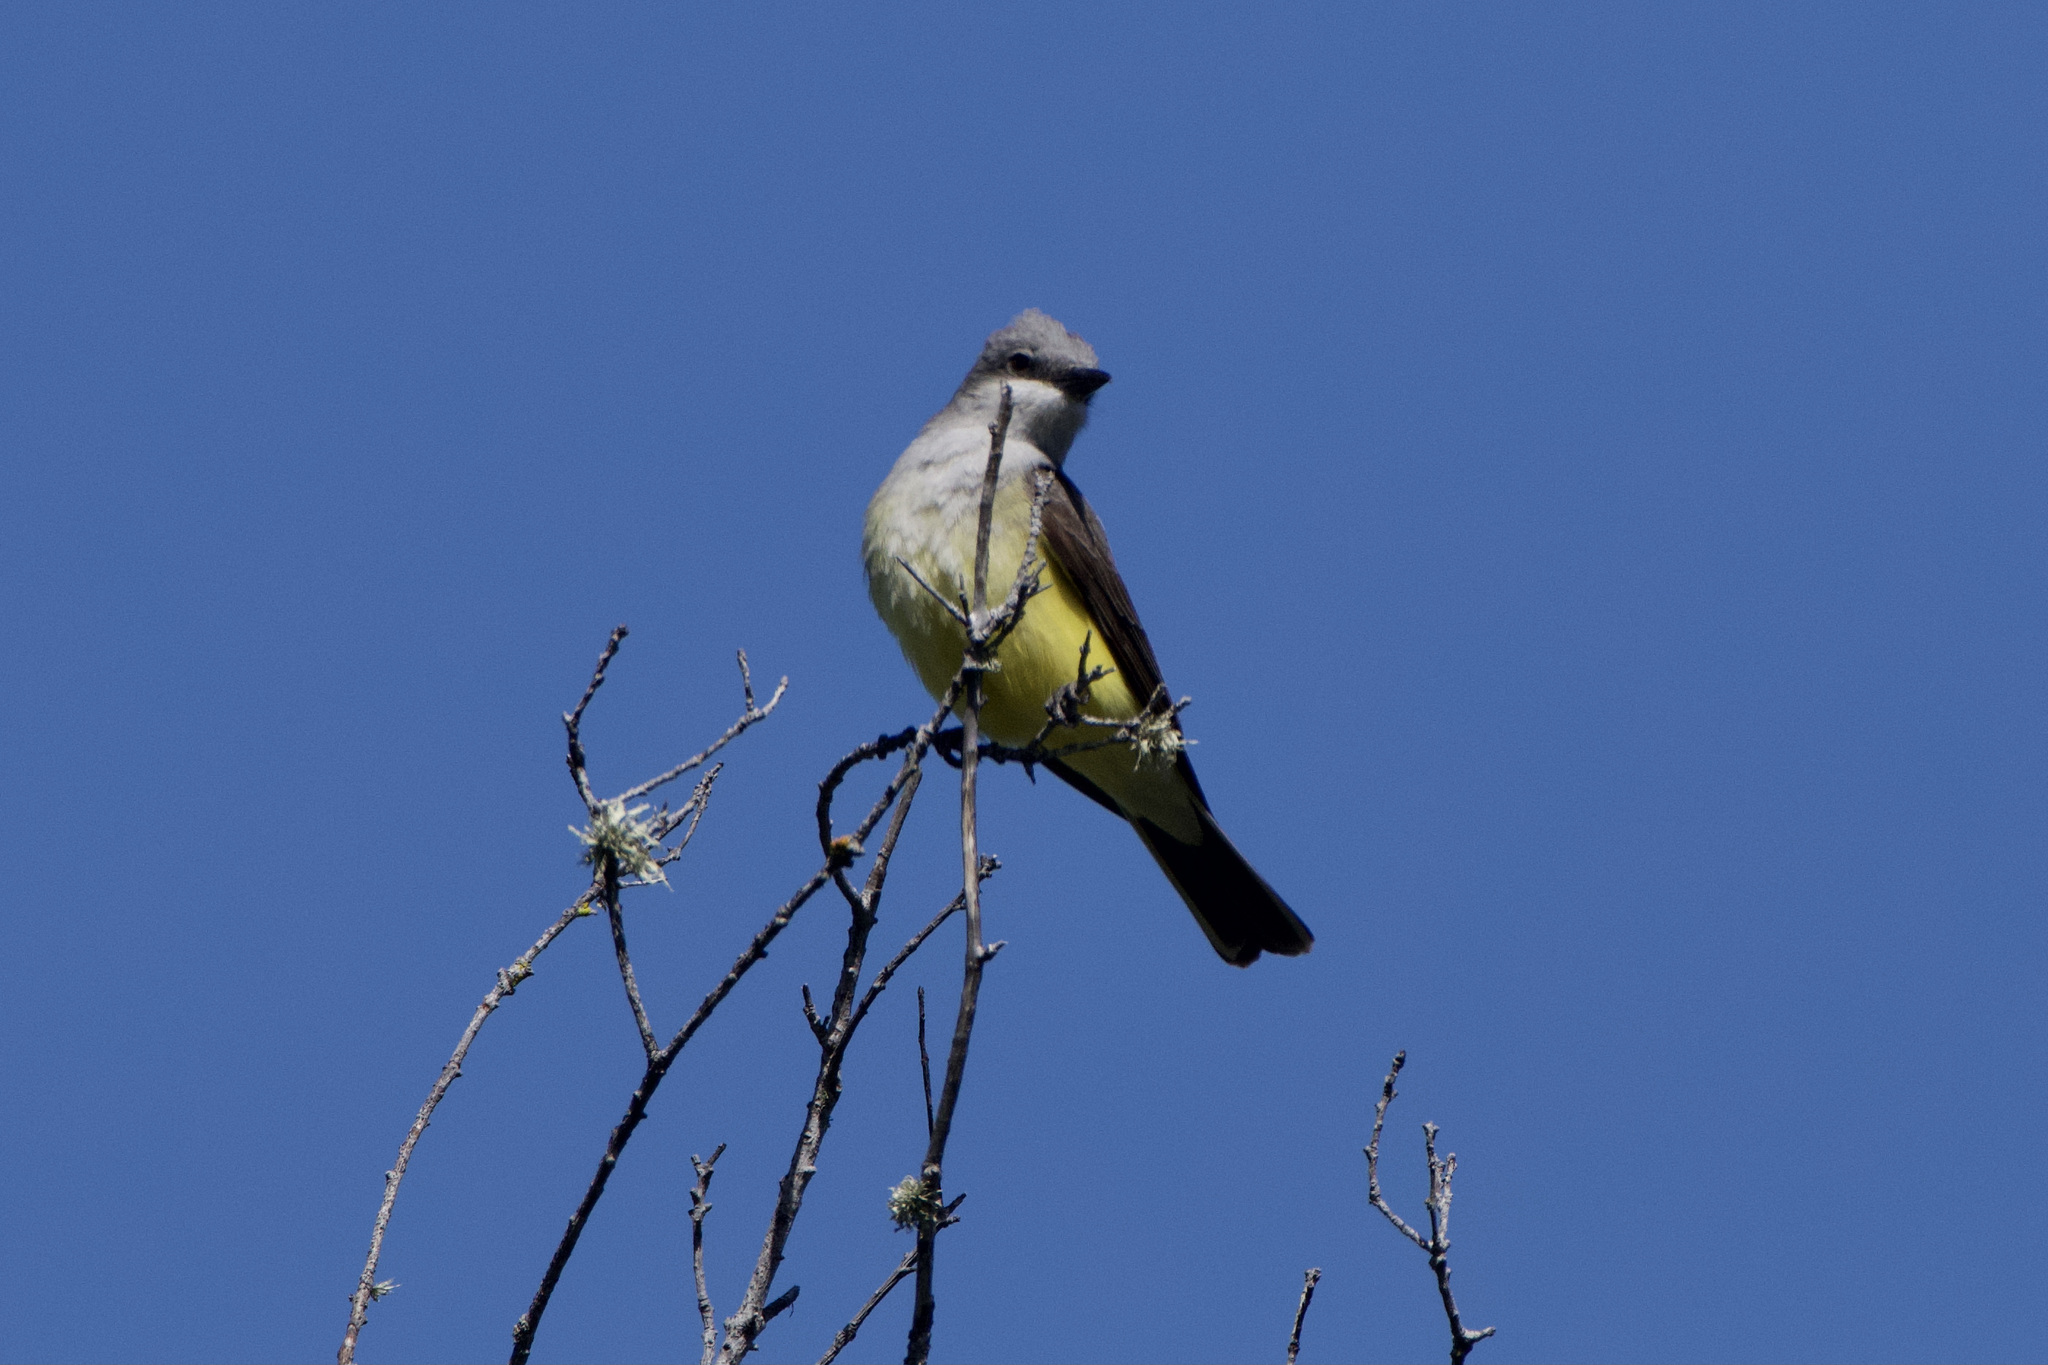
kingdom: Animalia
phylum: Chordata
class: Aves
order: Passeriformes
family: Tyrannidae
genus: Tyrannus
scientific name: Tyrannus verticalis
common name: Western kingbird
